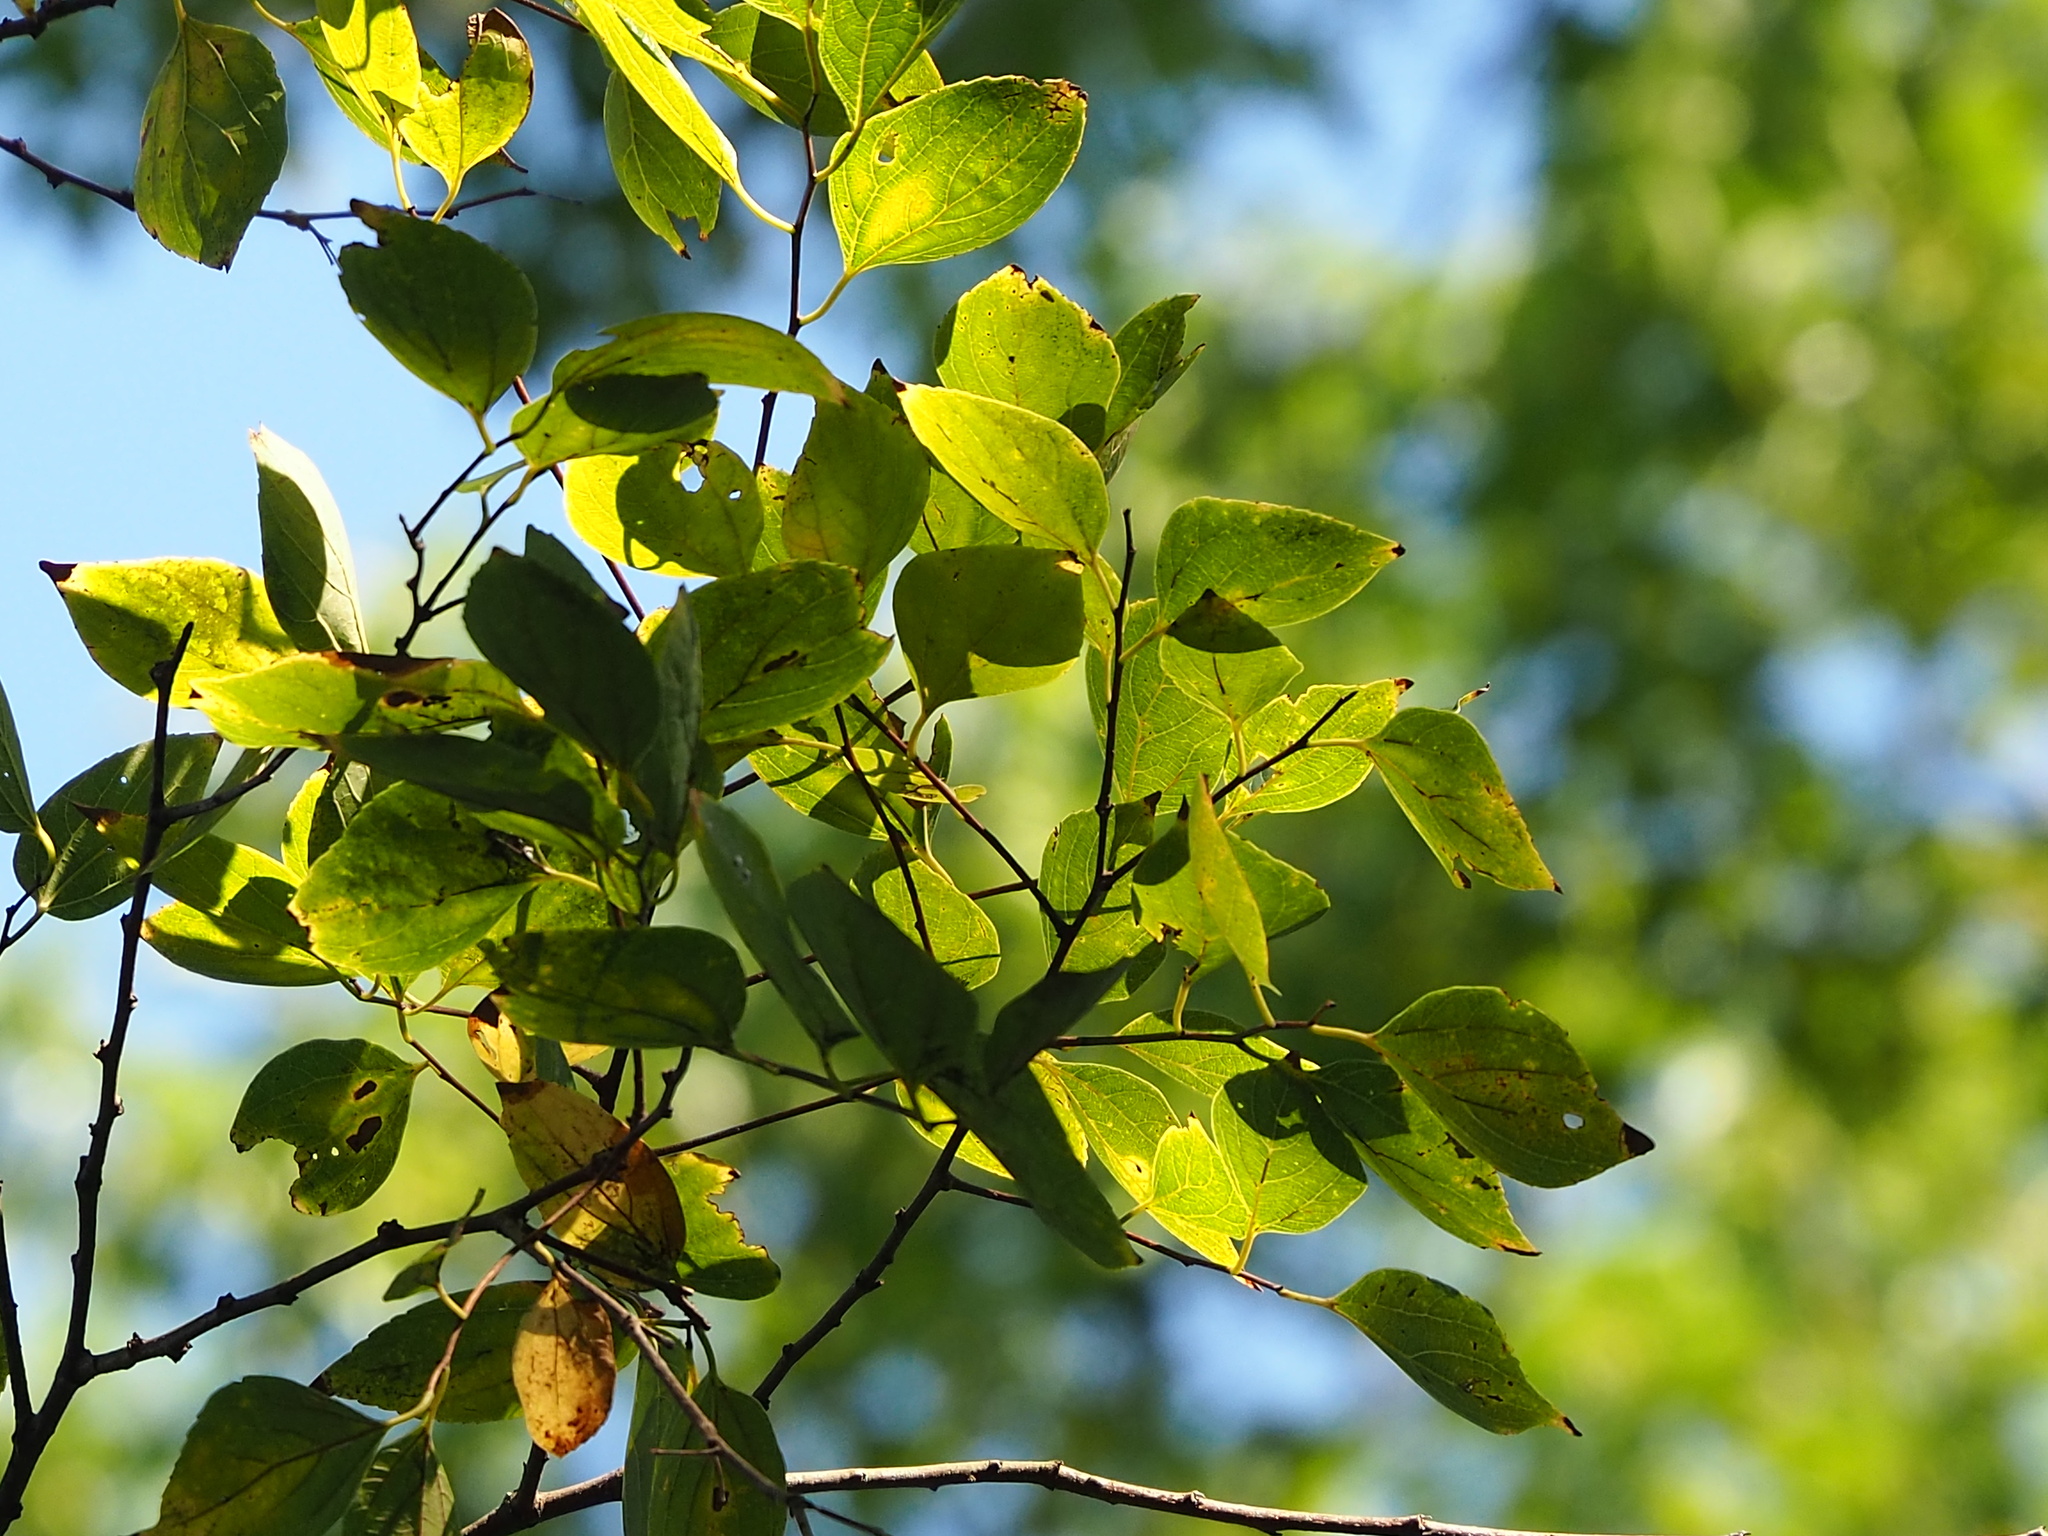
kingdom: Plantae
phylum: Tracheophyta
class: Magnoliopsida
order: Rosales
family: Cannabaceae
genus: Celtis
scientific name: Celtis sinensis
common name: Chinese hackberry
